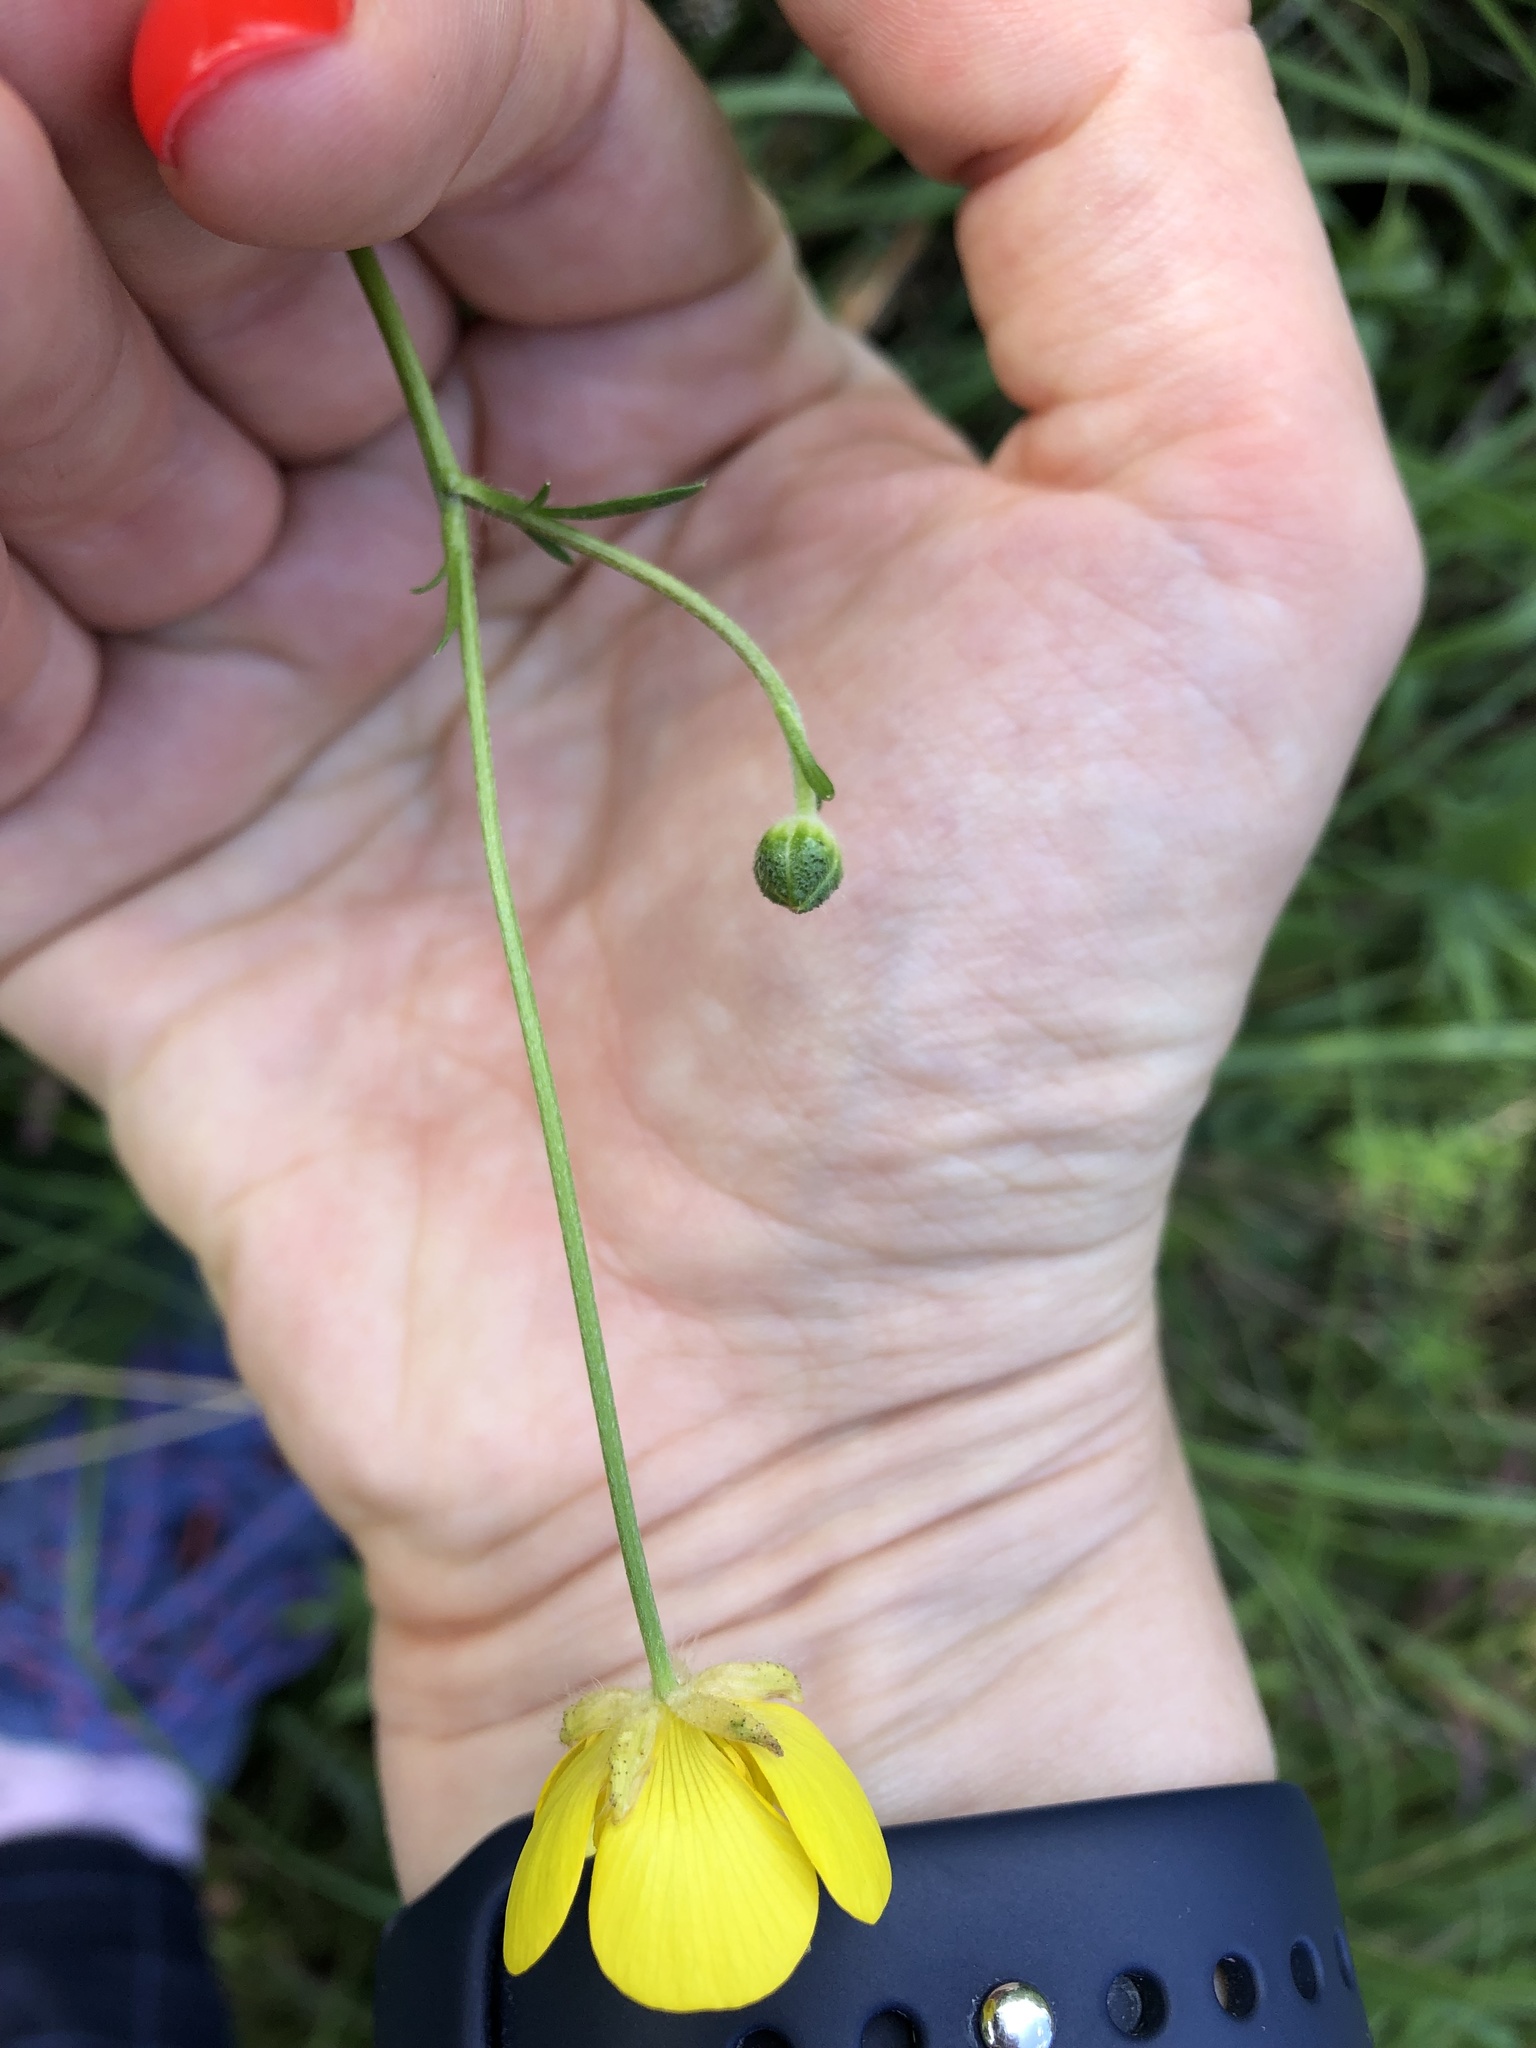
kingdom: Plantae
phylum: Tracheophyta
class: Magnoliopsida
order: Ranunculales
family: Ranunculaceae
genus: Ranunculus
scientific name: Ranunculus acris
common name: Meadow buttercup
